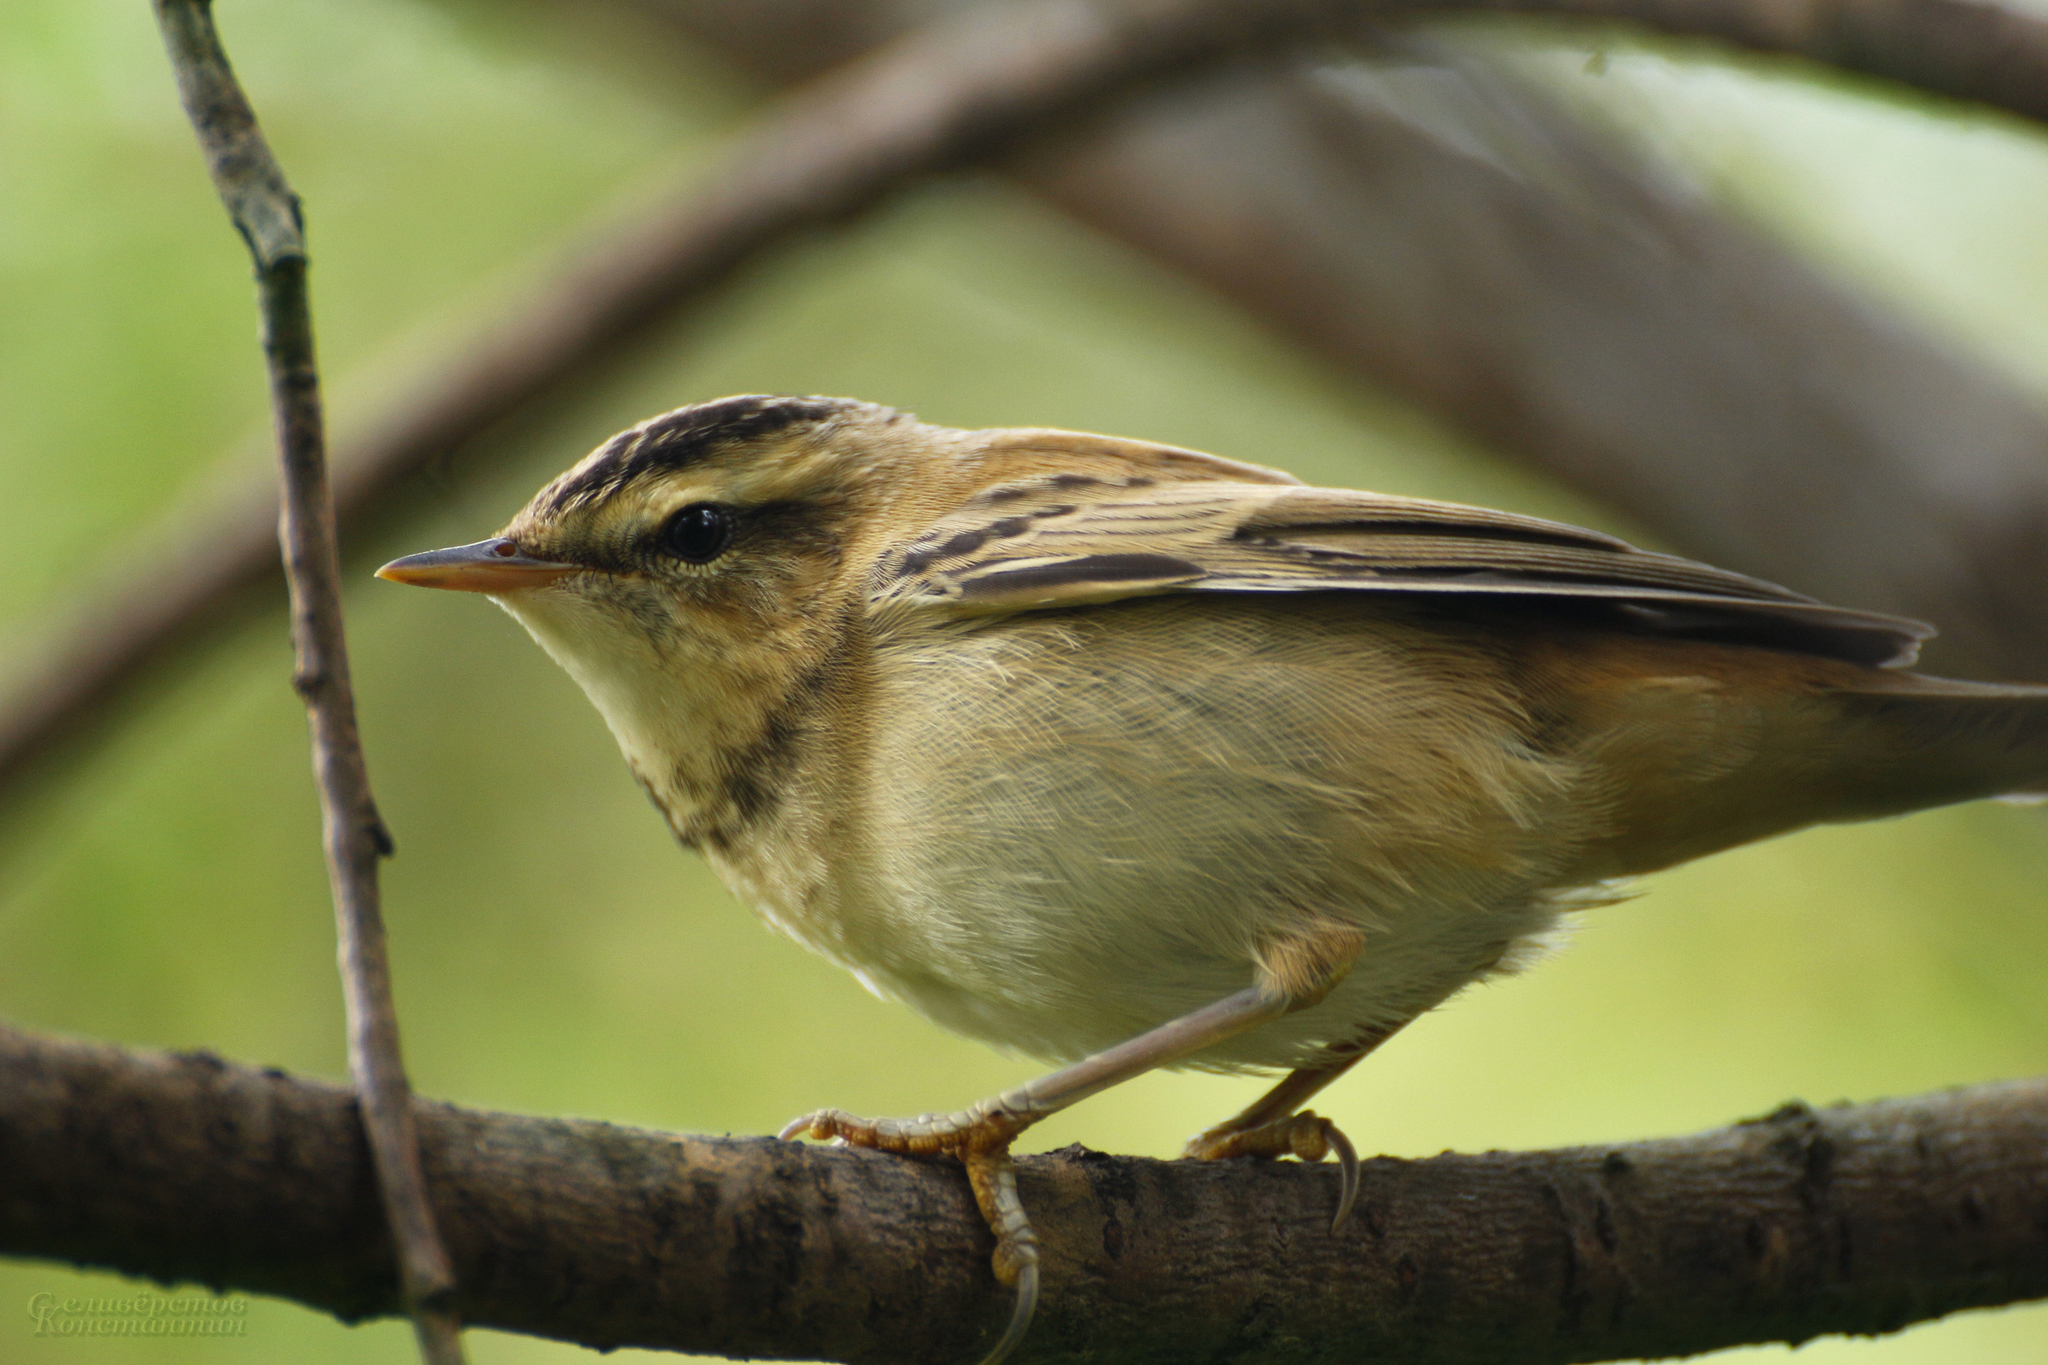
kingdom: Animalia
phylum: Chordata
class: Aves
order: Passeriformes
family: Acrocephalidae
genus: Acrocephalus
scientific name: Acrocephalus schoenobaenus
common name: Sedge warbler
